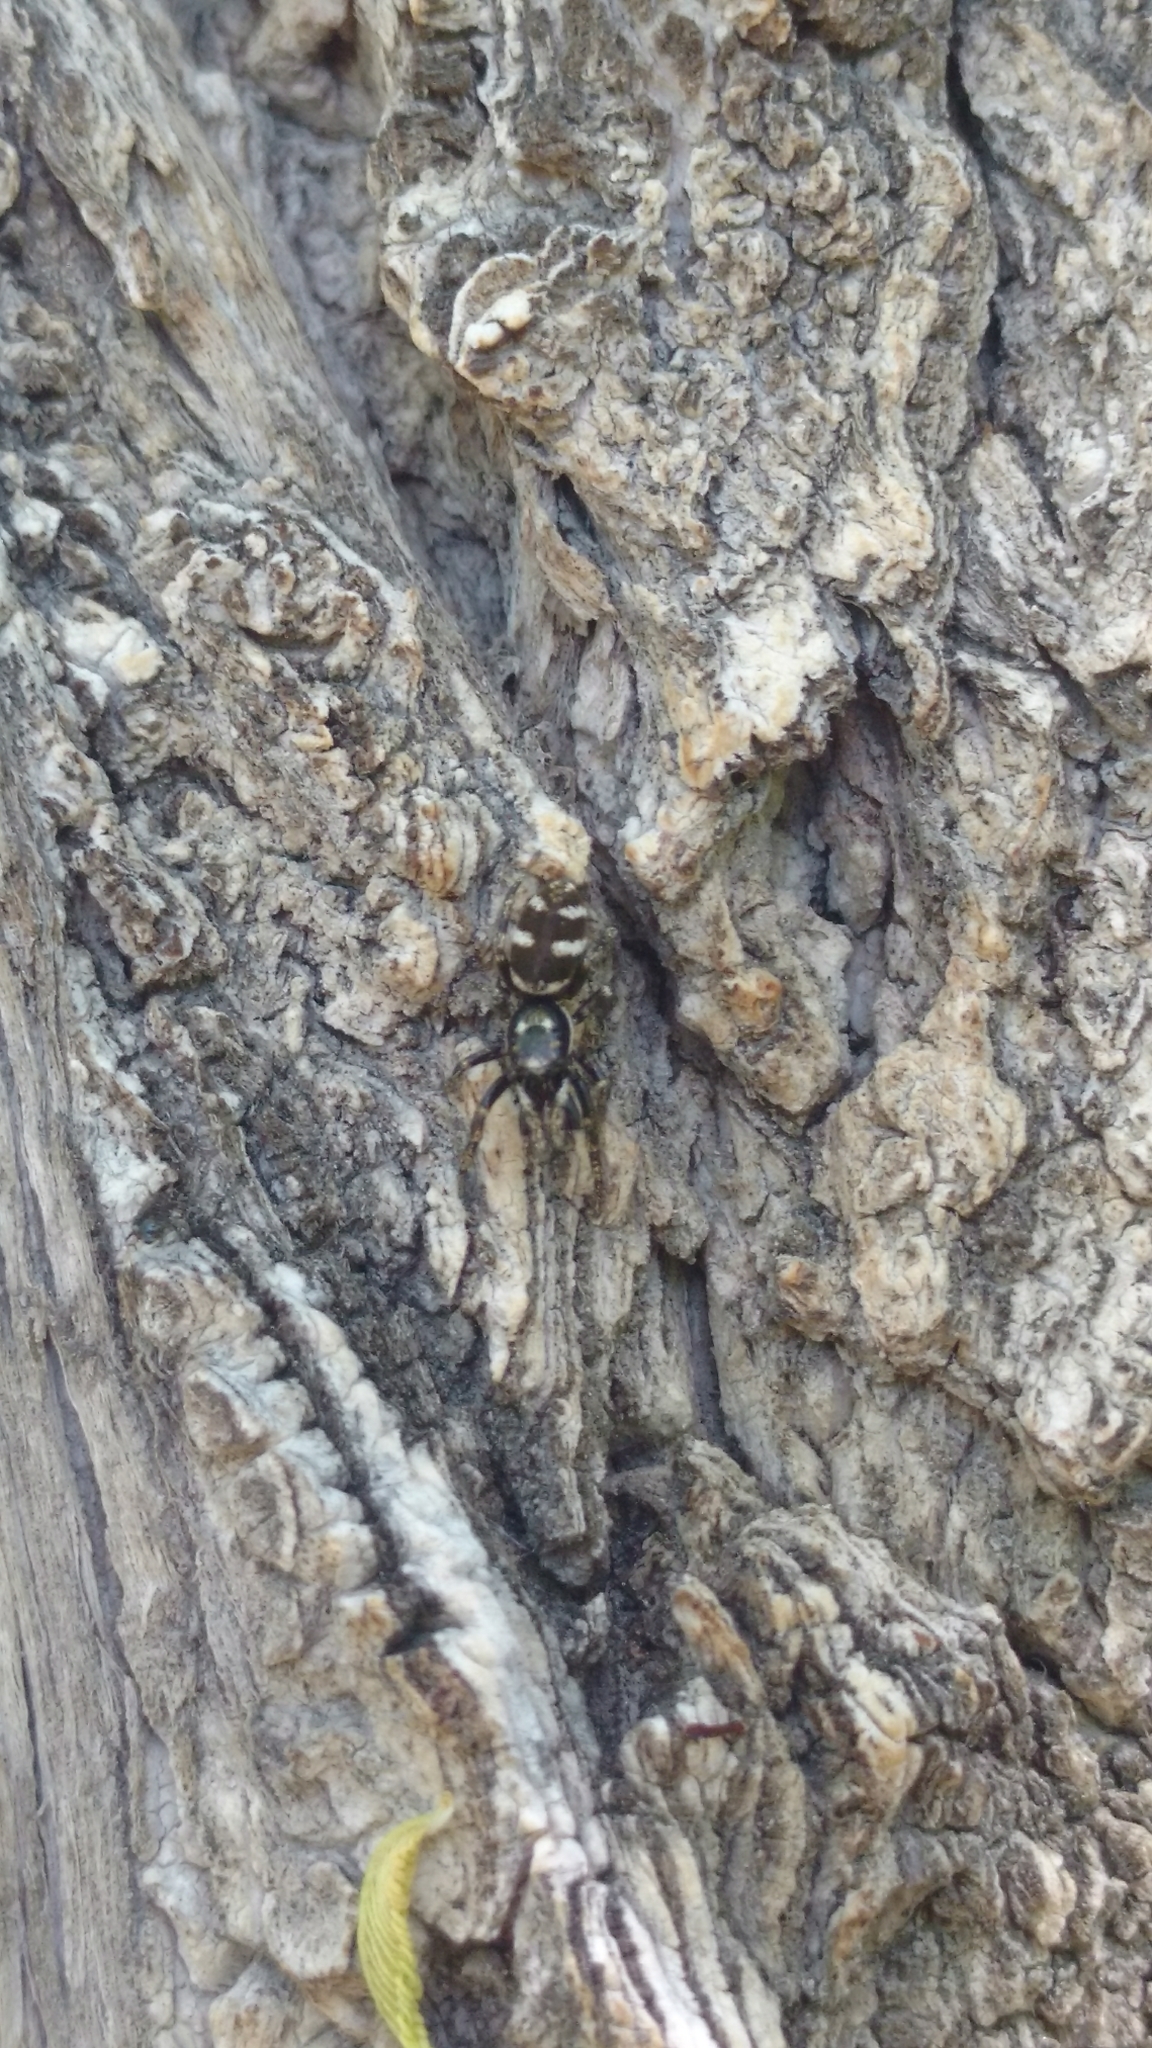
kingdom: Animalia
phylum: Arthropoda
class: Arachnida
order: Araneae
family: Salticidae
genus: Salticus
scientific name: Salticus scenicus
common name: Zebra jumper
